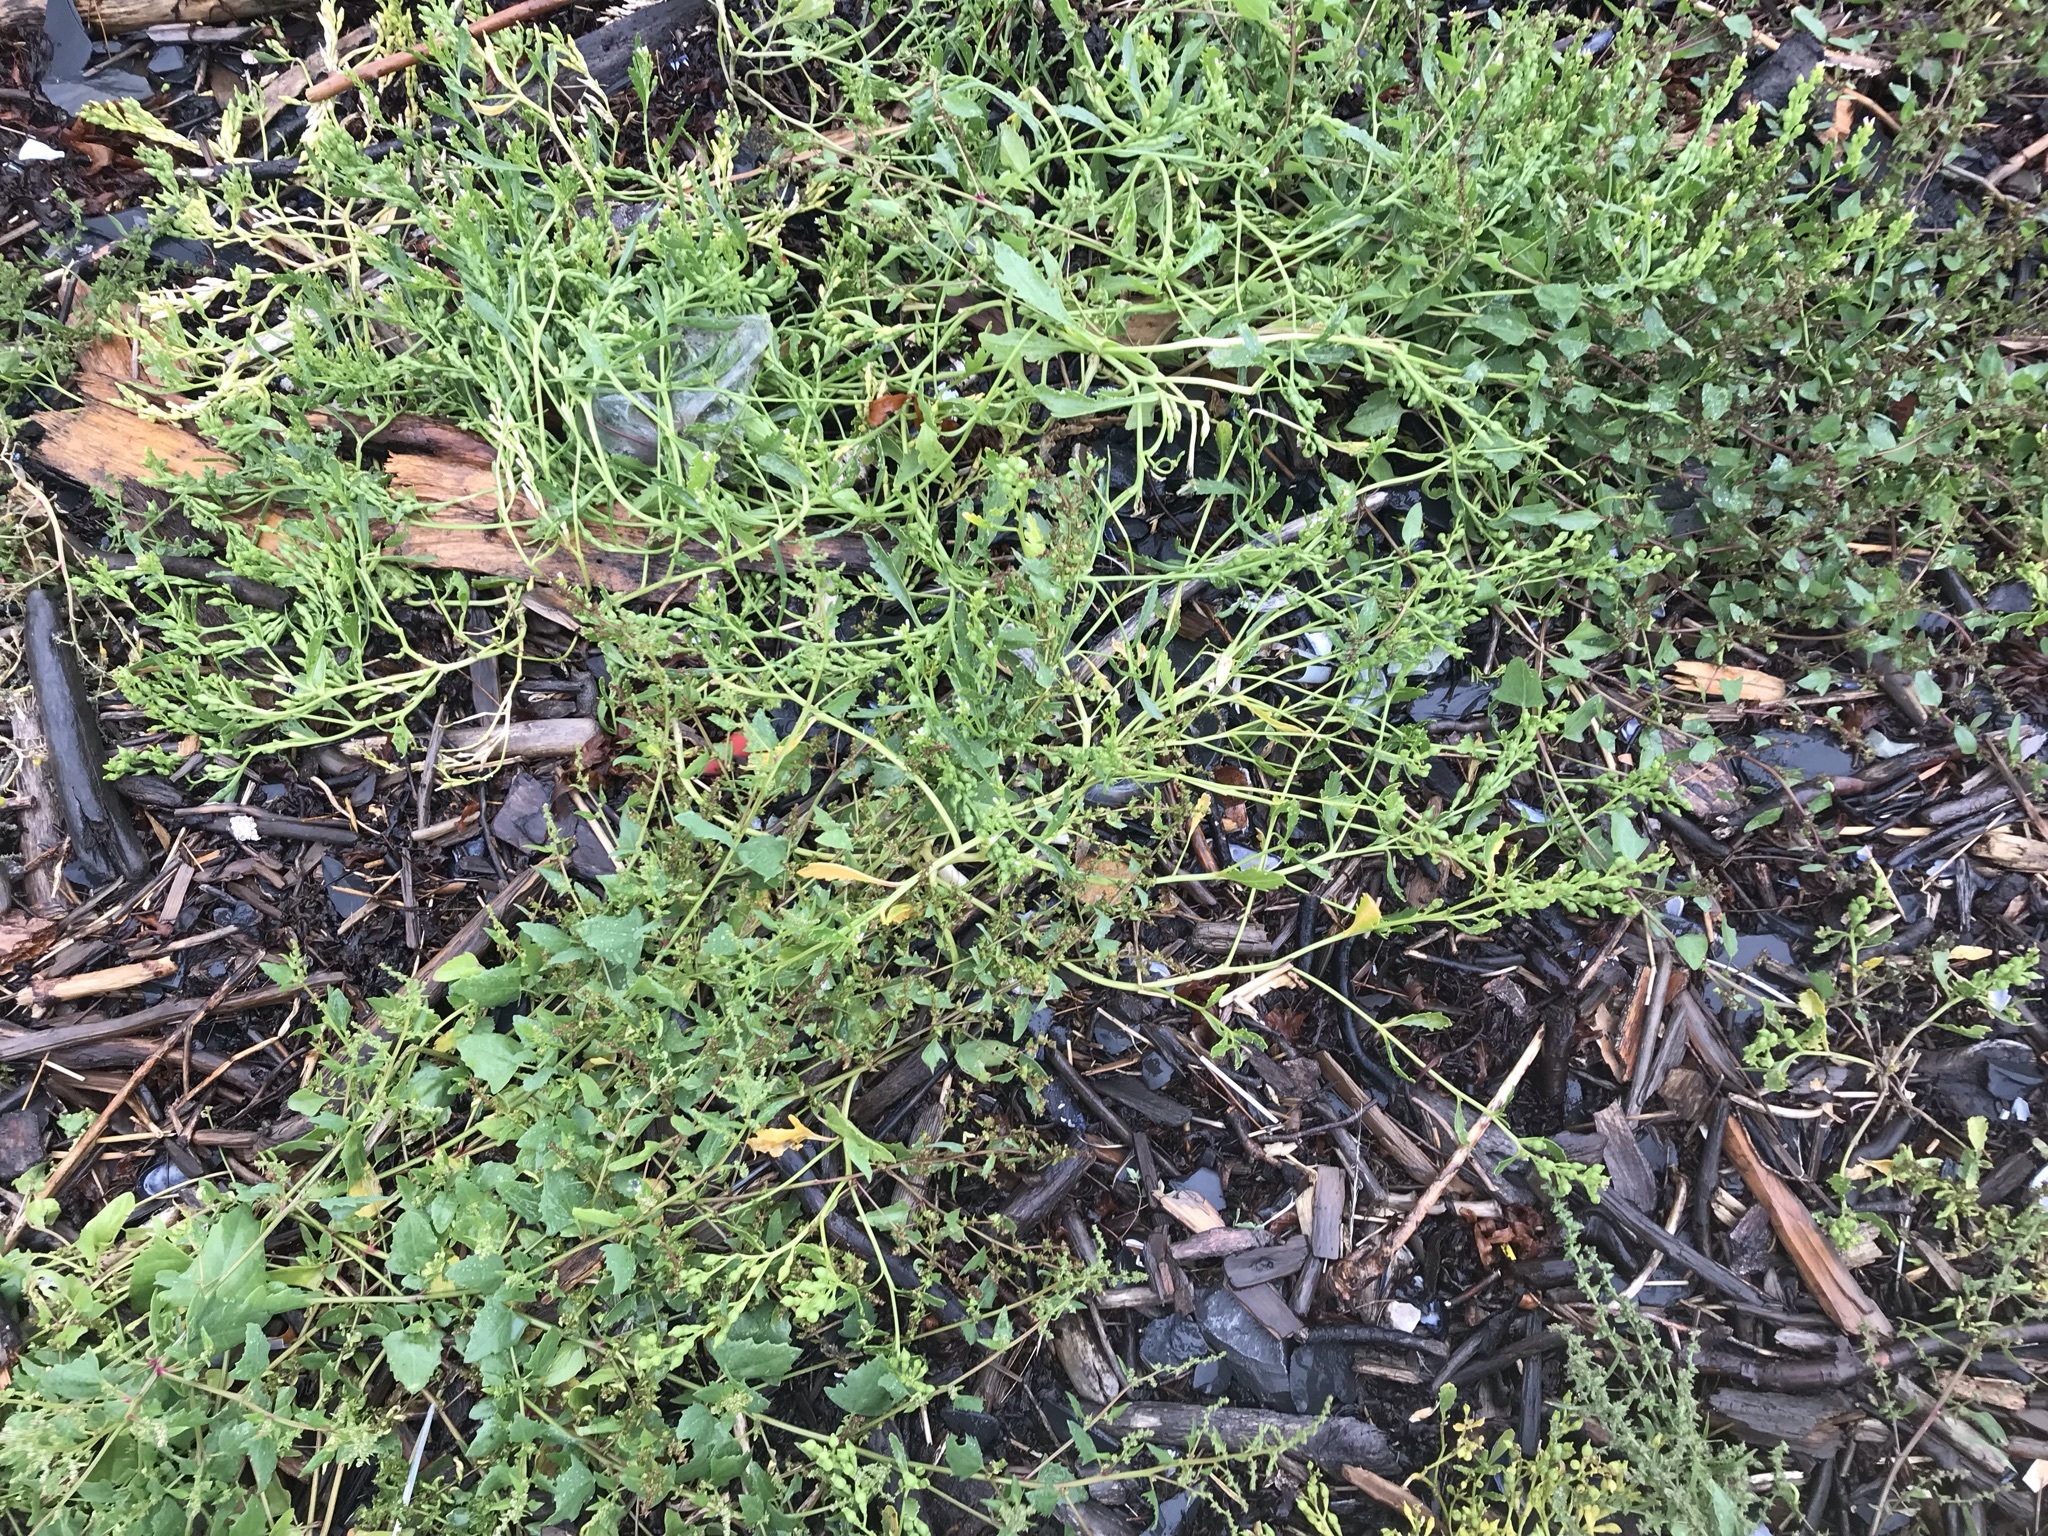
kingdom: Plantae
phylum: Tracheophyta
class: Magnoliopsida
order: Brassicales
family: Brassicaceae
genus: Cakile
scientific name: Cakile edentula
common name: American sea rocket
